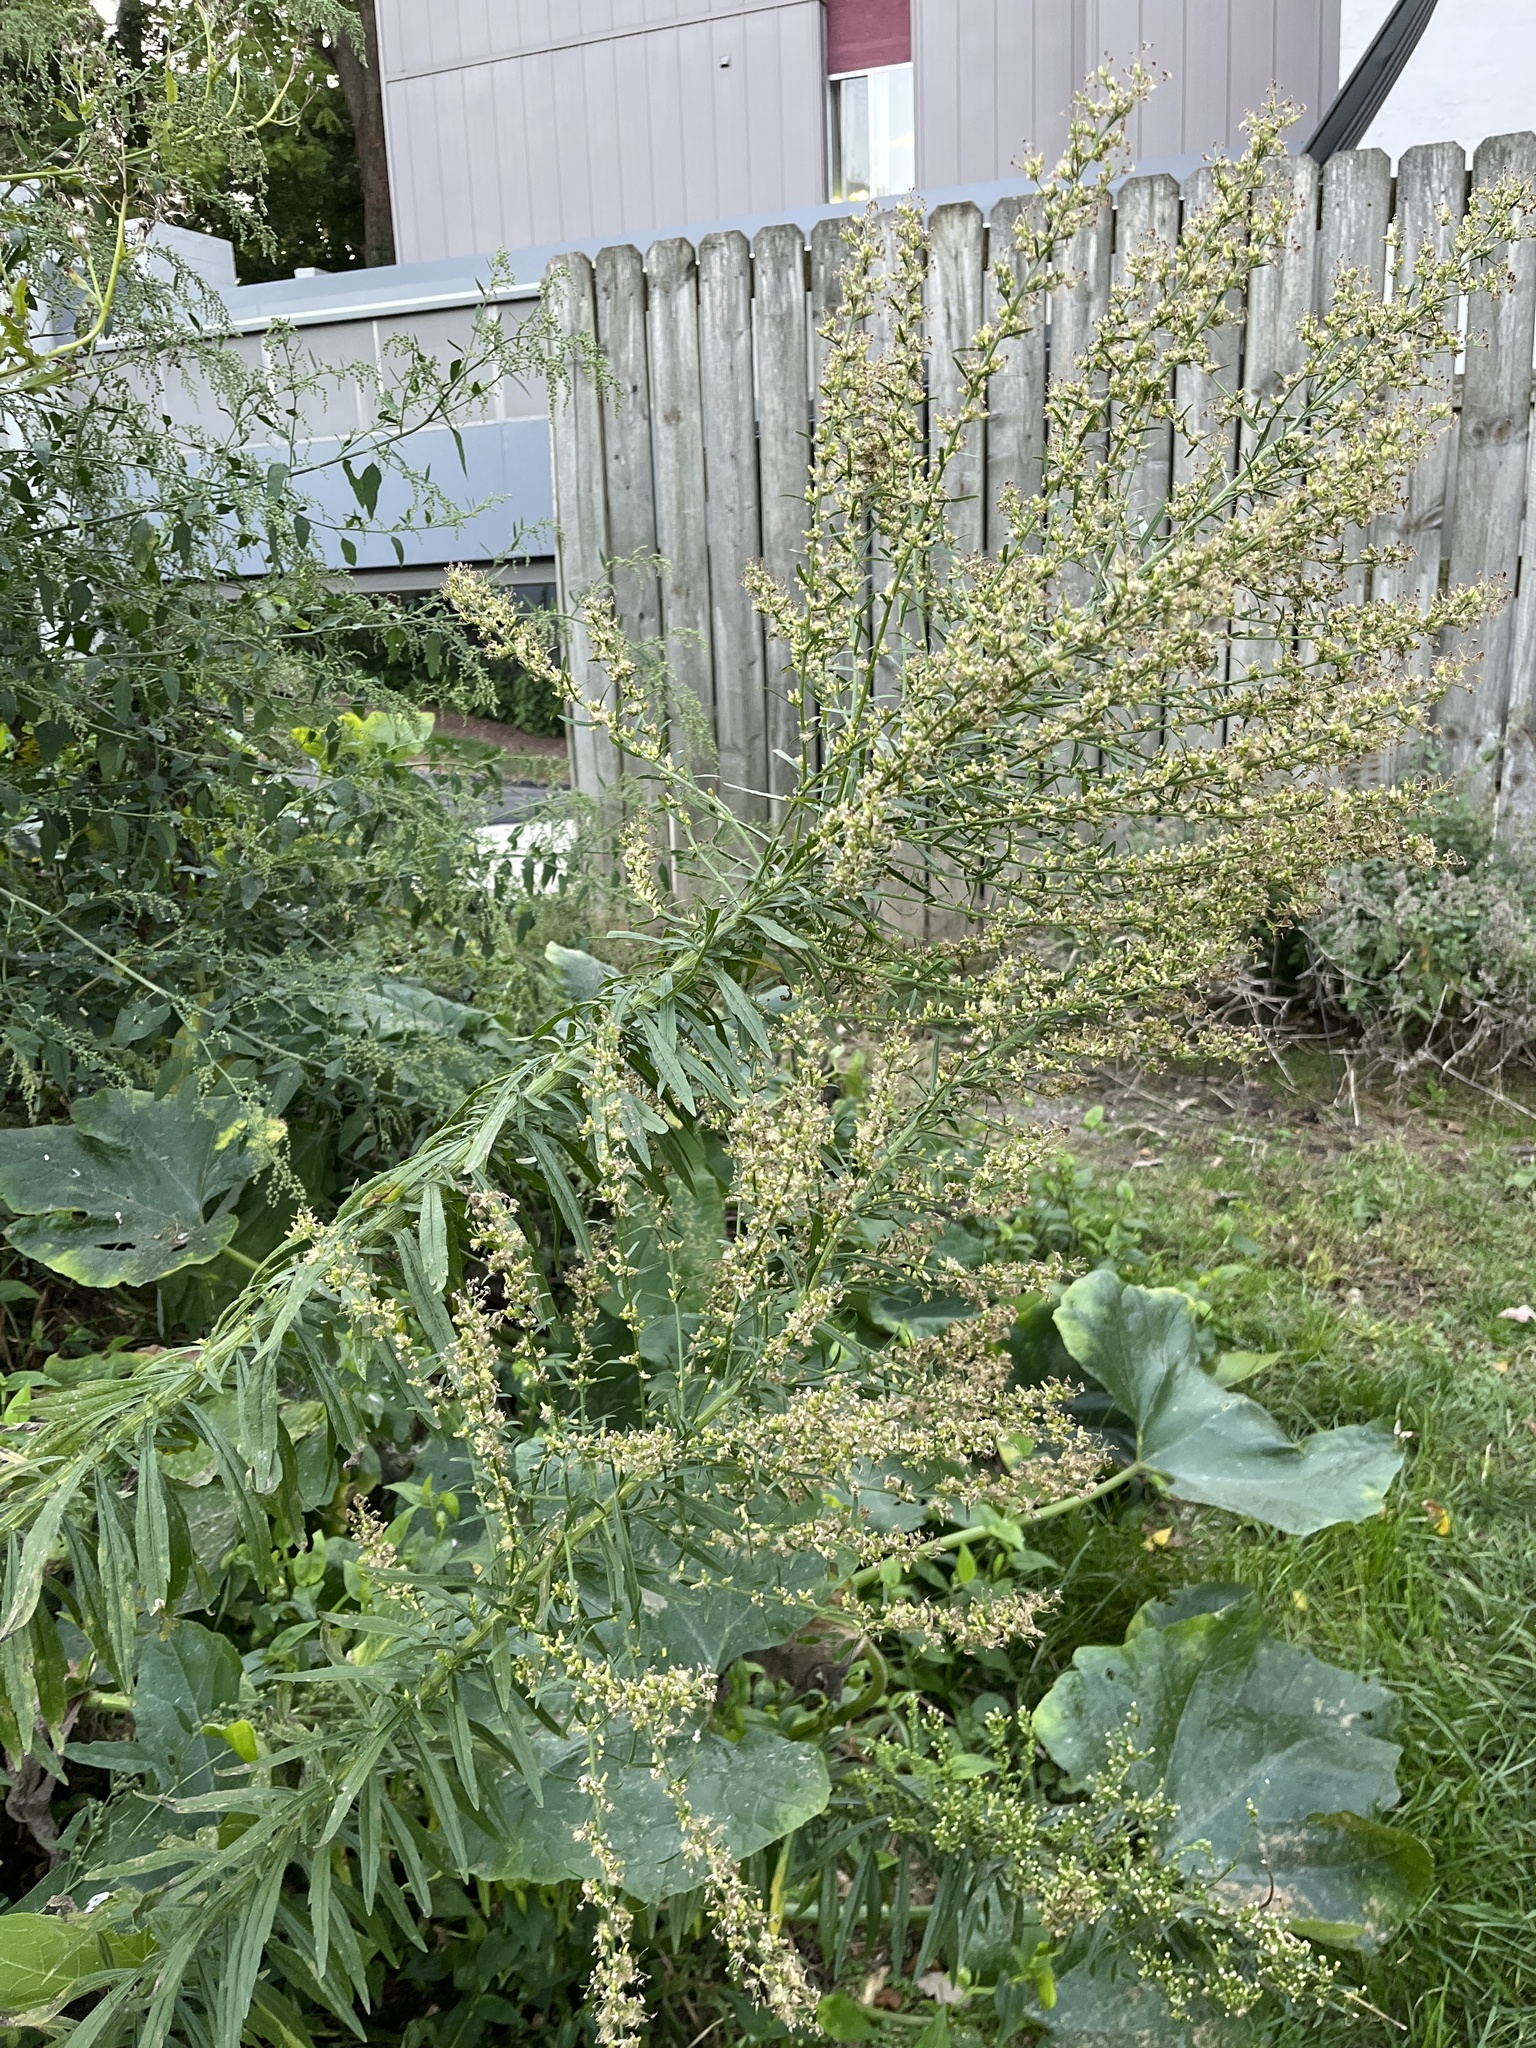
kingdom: Plantae
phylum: Tracheophyta
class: Magnoliopsida
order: Asterales
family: Asteraceae
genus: Erigeron
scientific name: Erigeron canadensis
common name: Canadian fleabane
